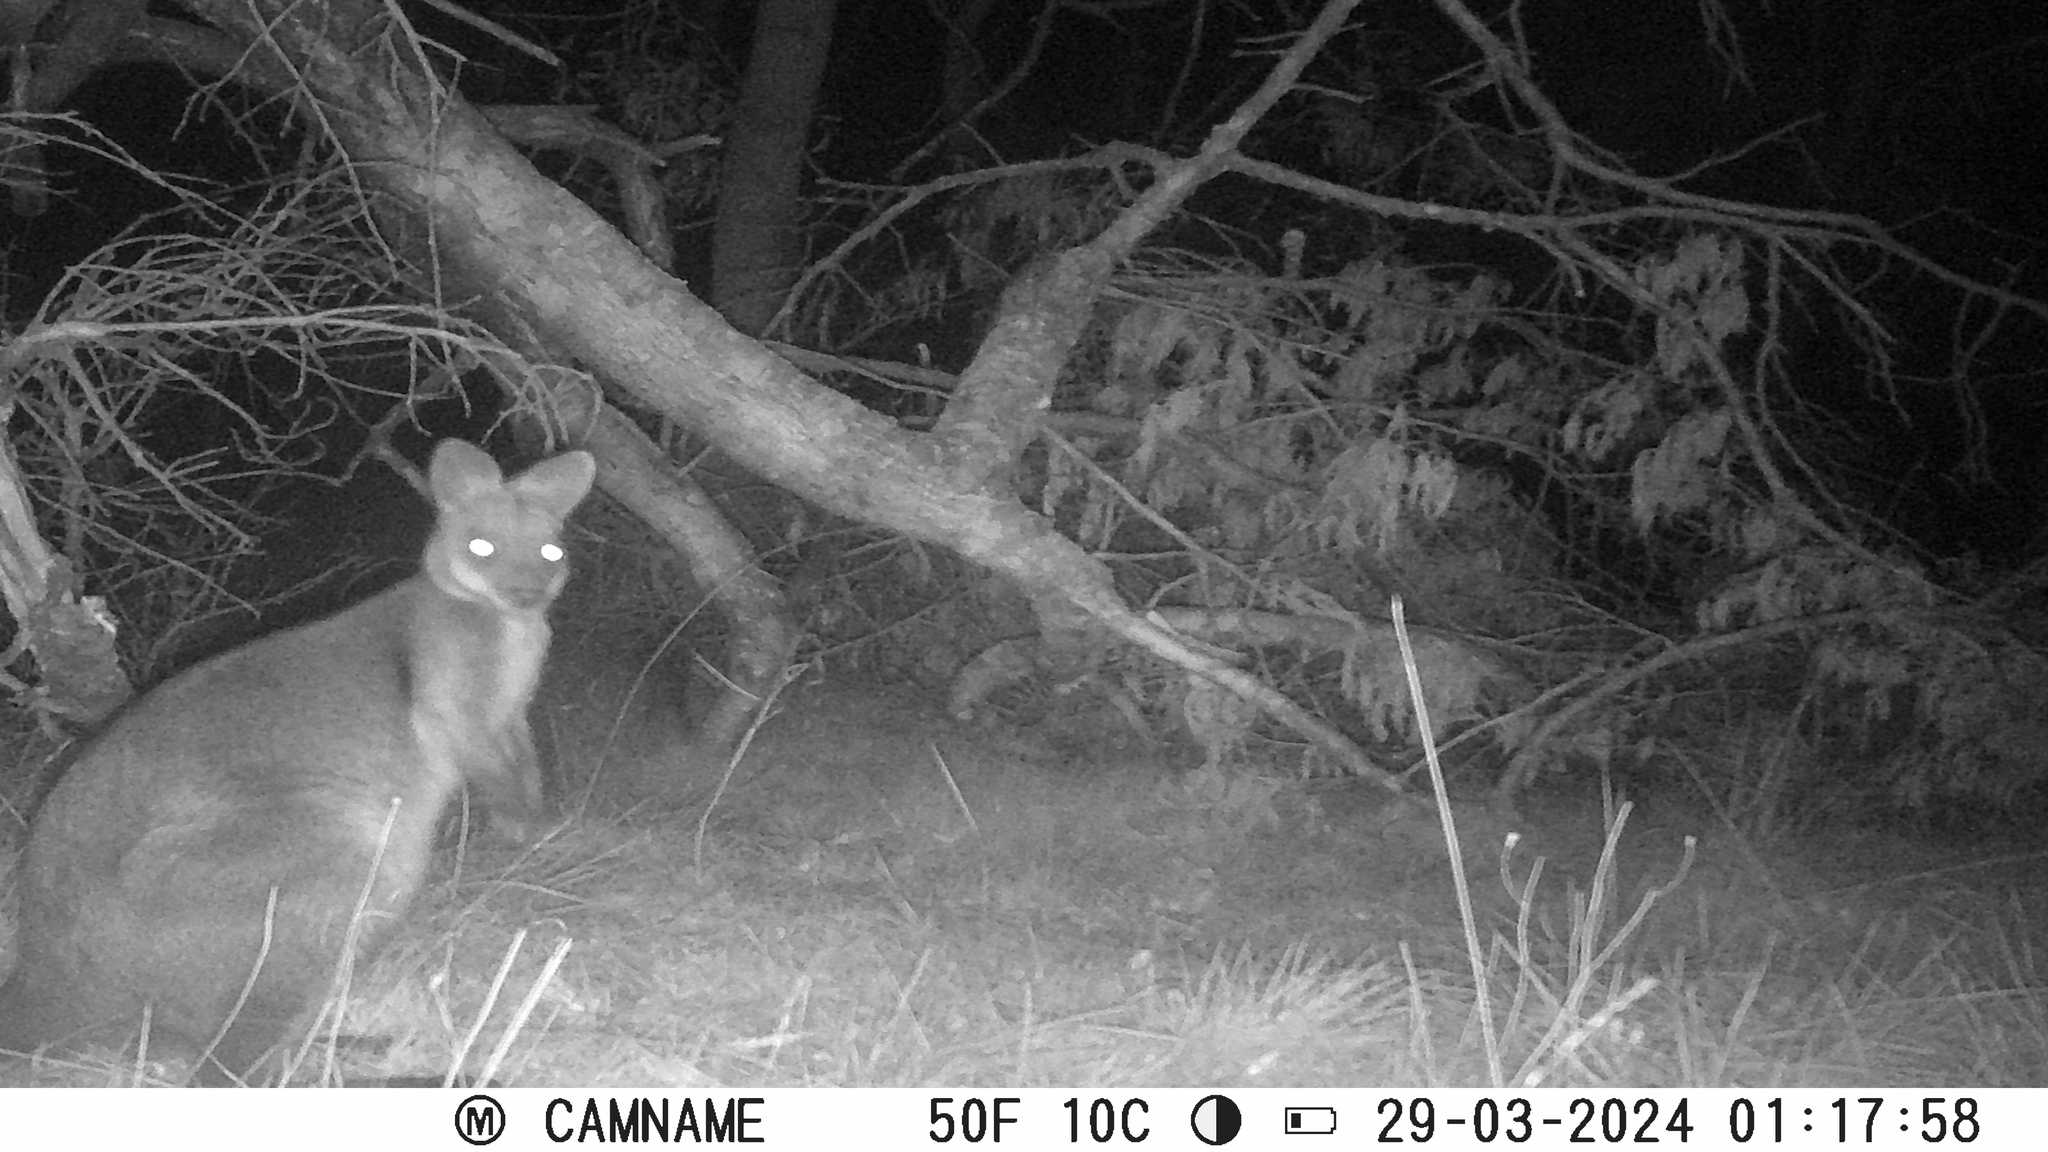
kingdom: Animalia
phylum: Chordata
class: Mammalia
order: Diprotodontia
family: Macropodidae
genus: Wallabia
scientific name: Wallabia bicolor
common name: Swamp wallaby
